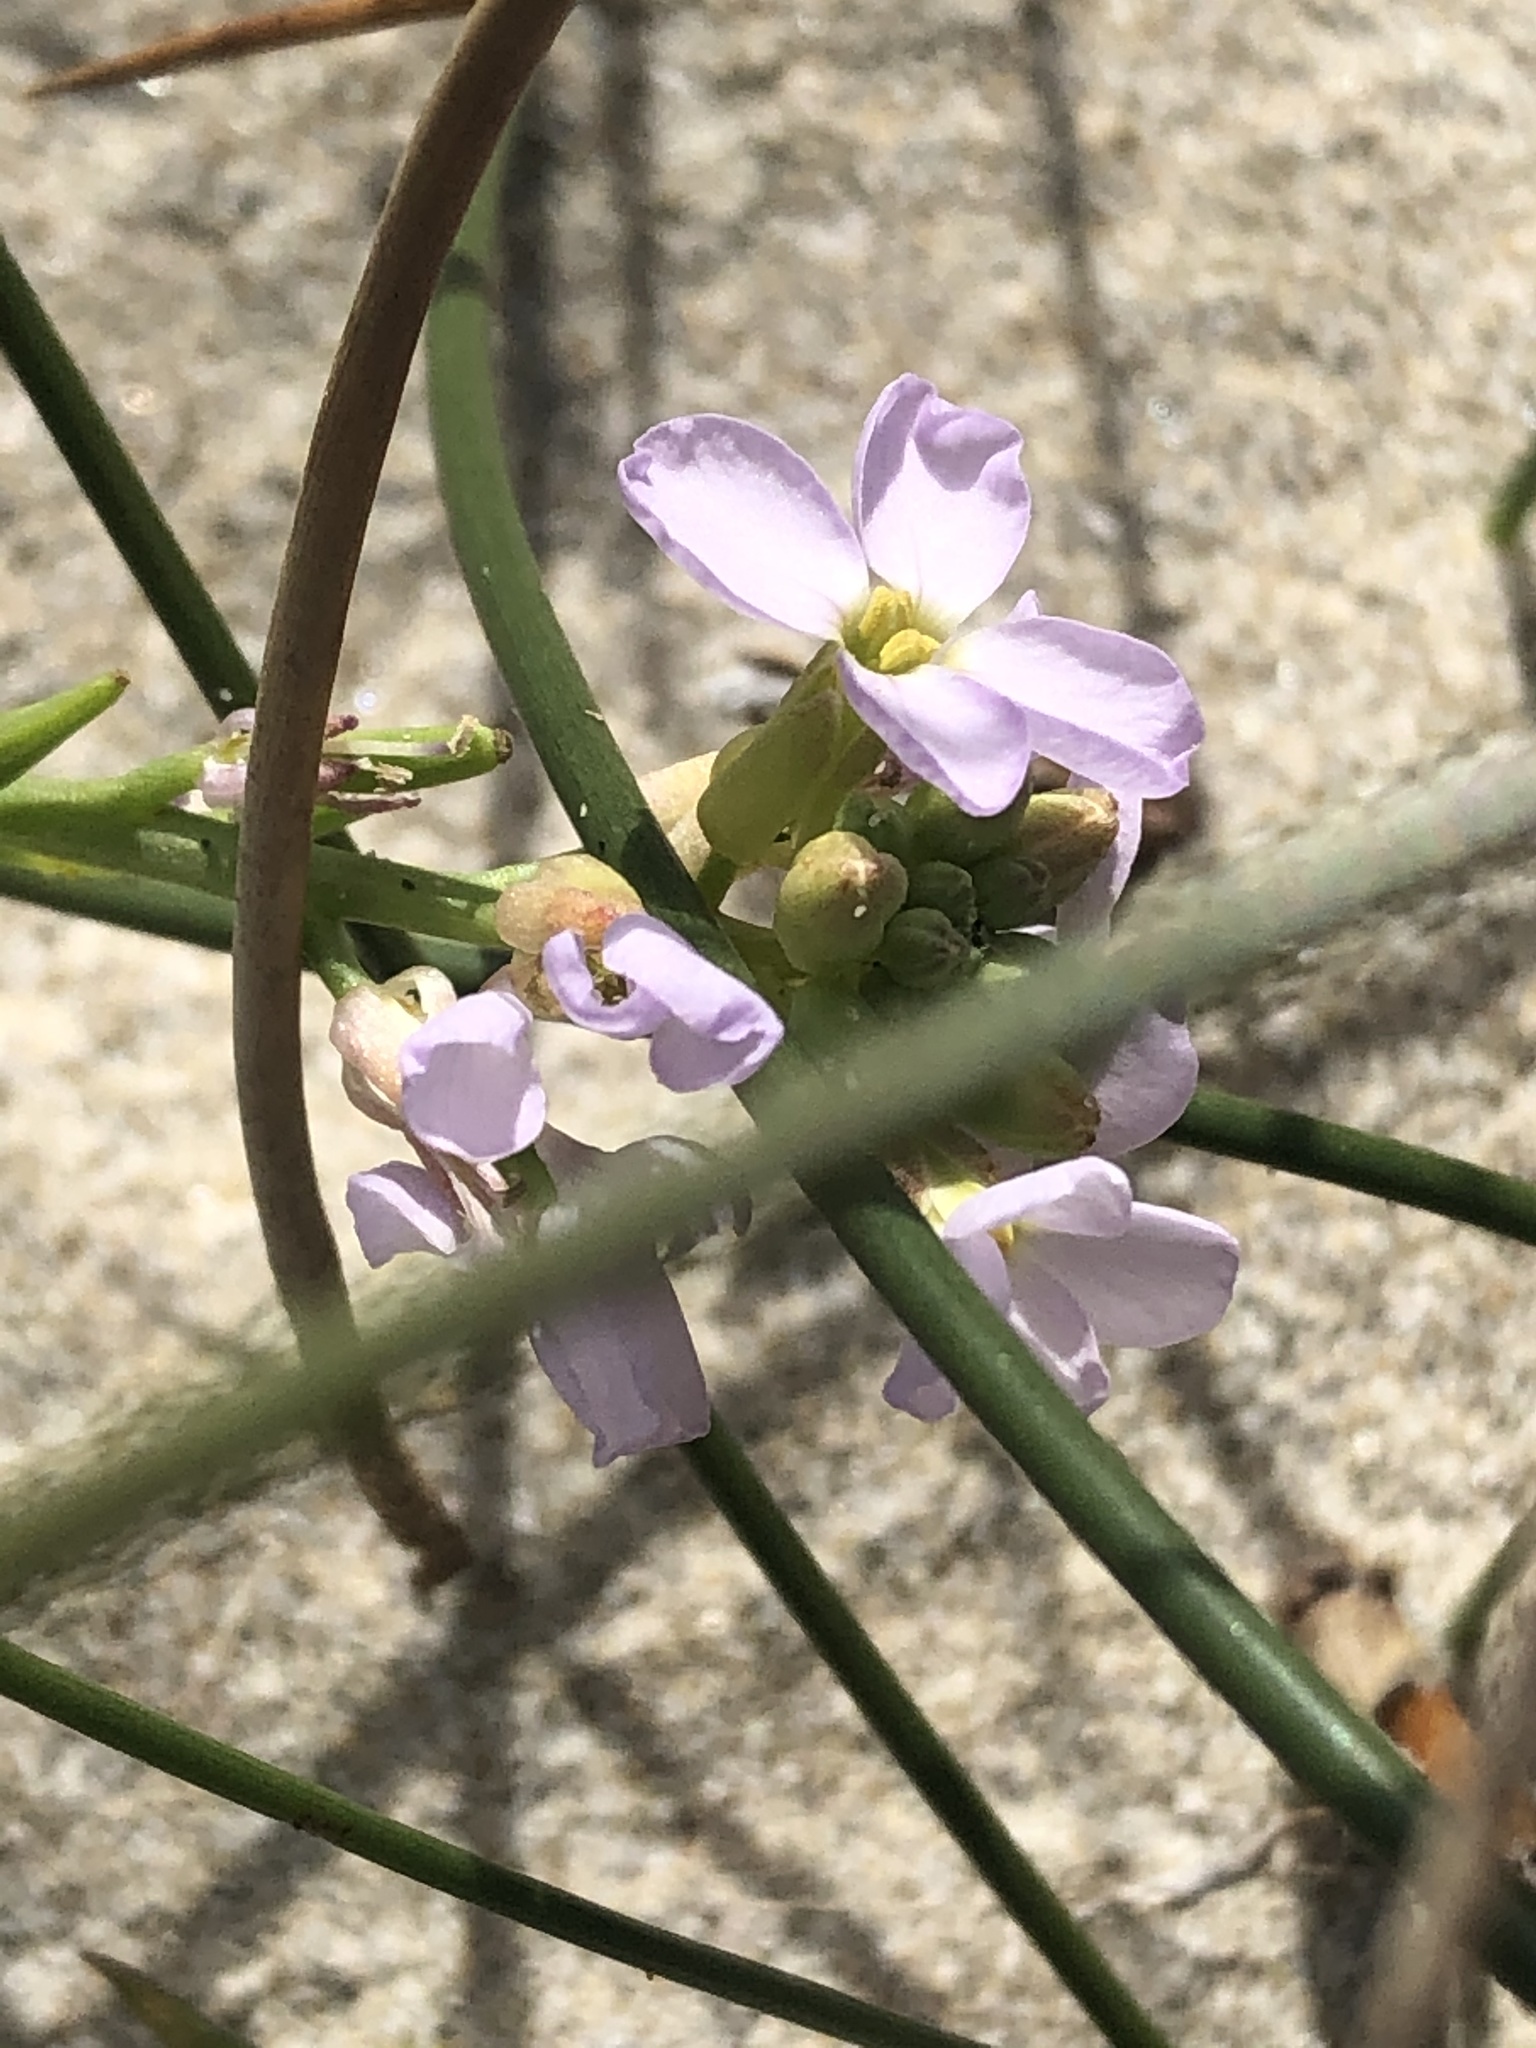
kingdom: Plantae
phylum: Tracheophyta
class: Magnoliopsida
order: Brassicales
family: Brassicaceae
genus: Cakile
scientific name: Cakile maritima
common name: Sea rocket
